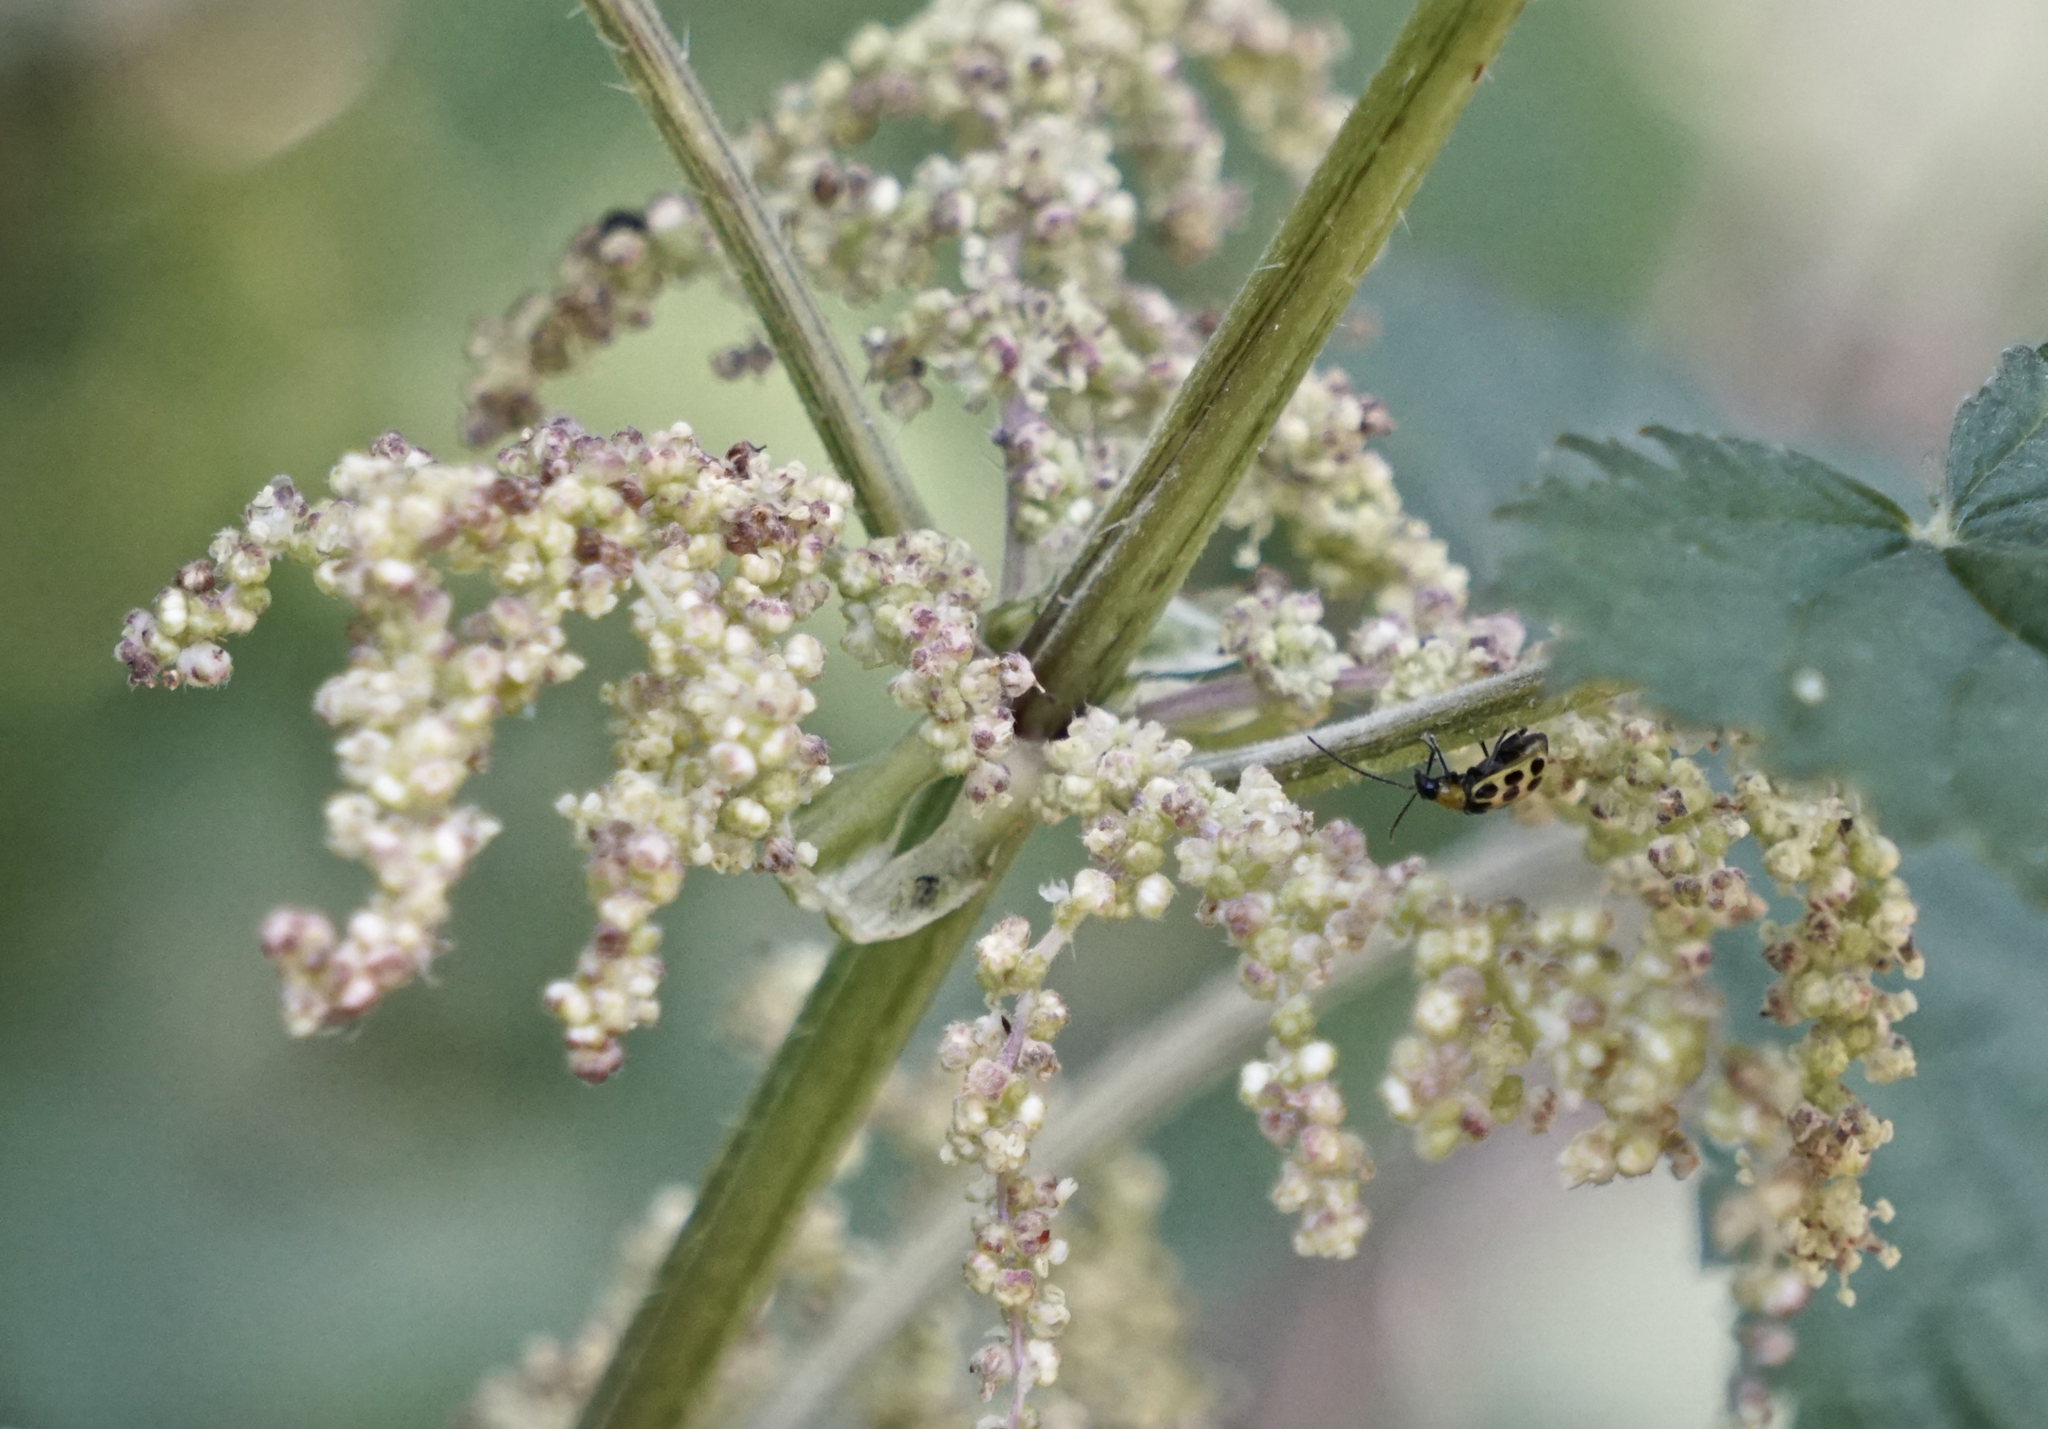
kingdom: Plantae
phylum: Tracheophyta
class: Magnoliopsida
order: Rosales
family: Urticaceae
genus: Urtica
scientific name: Urtica dioica
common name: Common nettle
